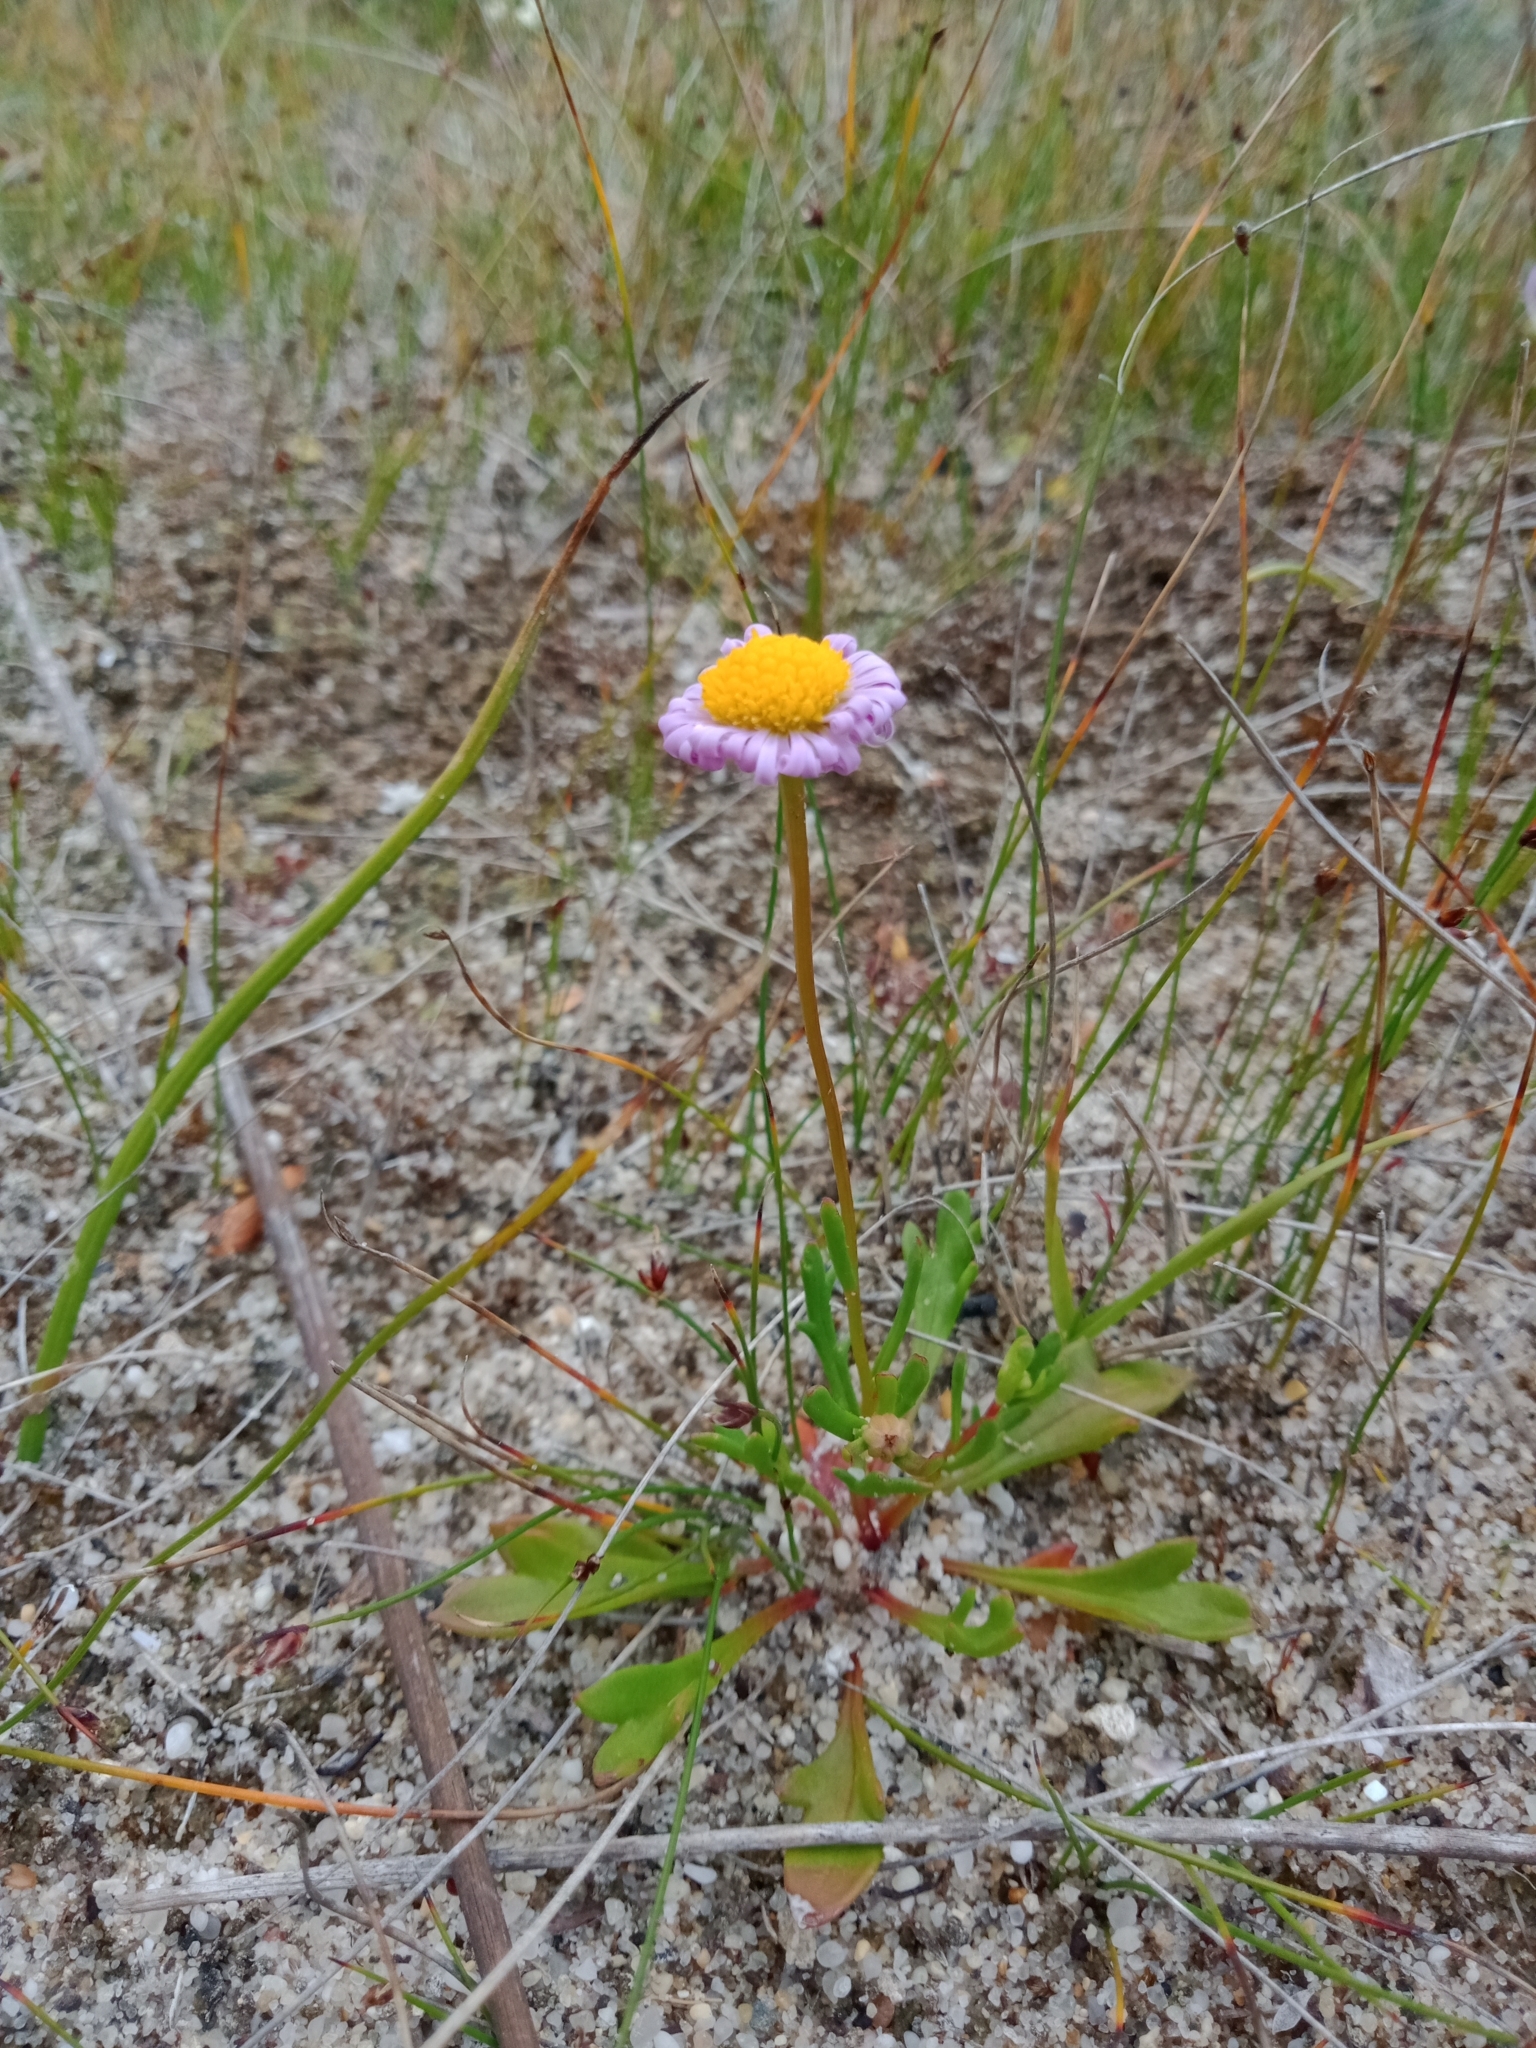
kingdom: Plantae
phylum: Tracheophyta
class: Magnoliopsida
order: Asterales
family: Asteraceae
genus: Brachyscome
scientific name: Brachyscome parvula
